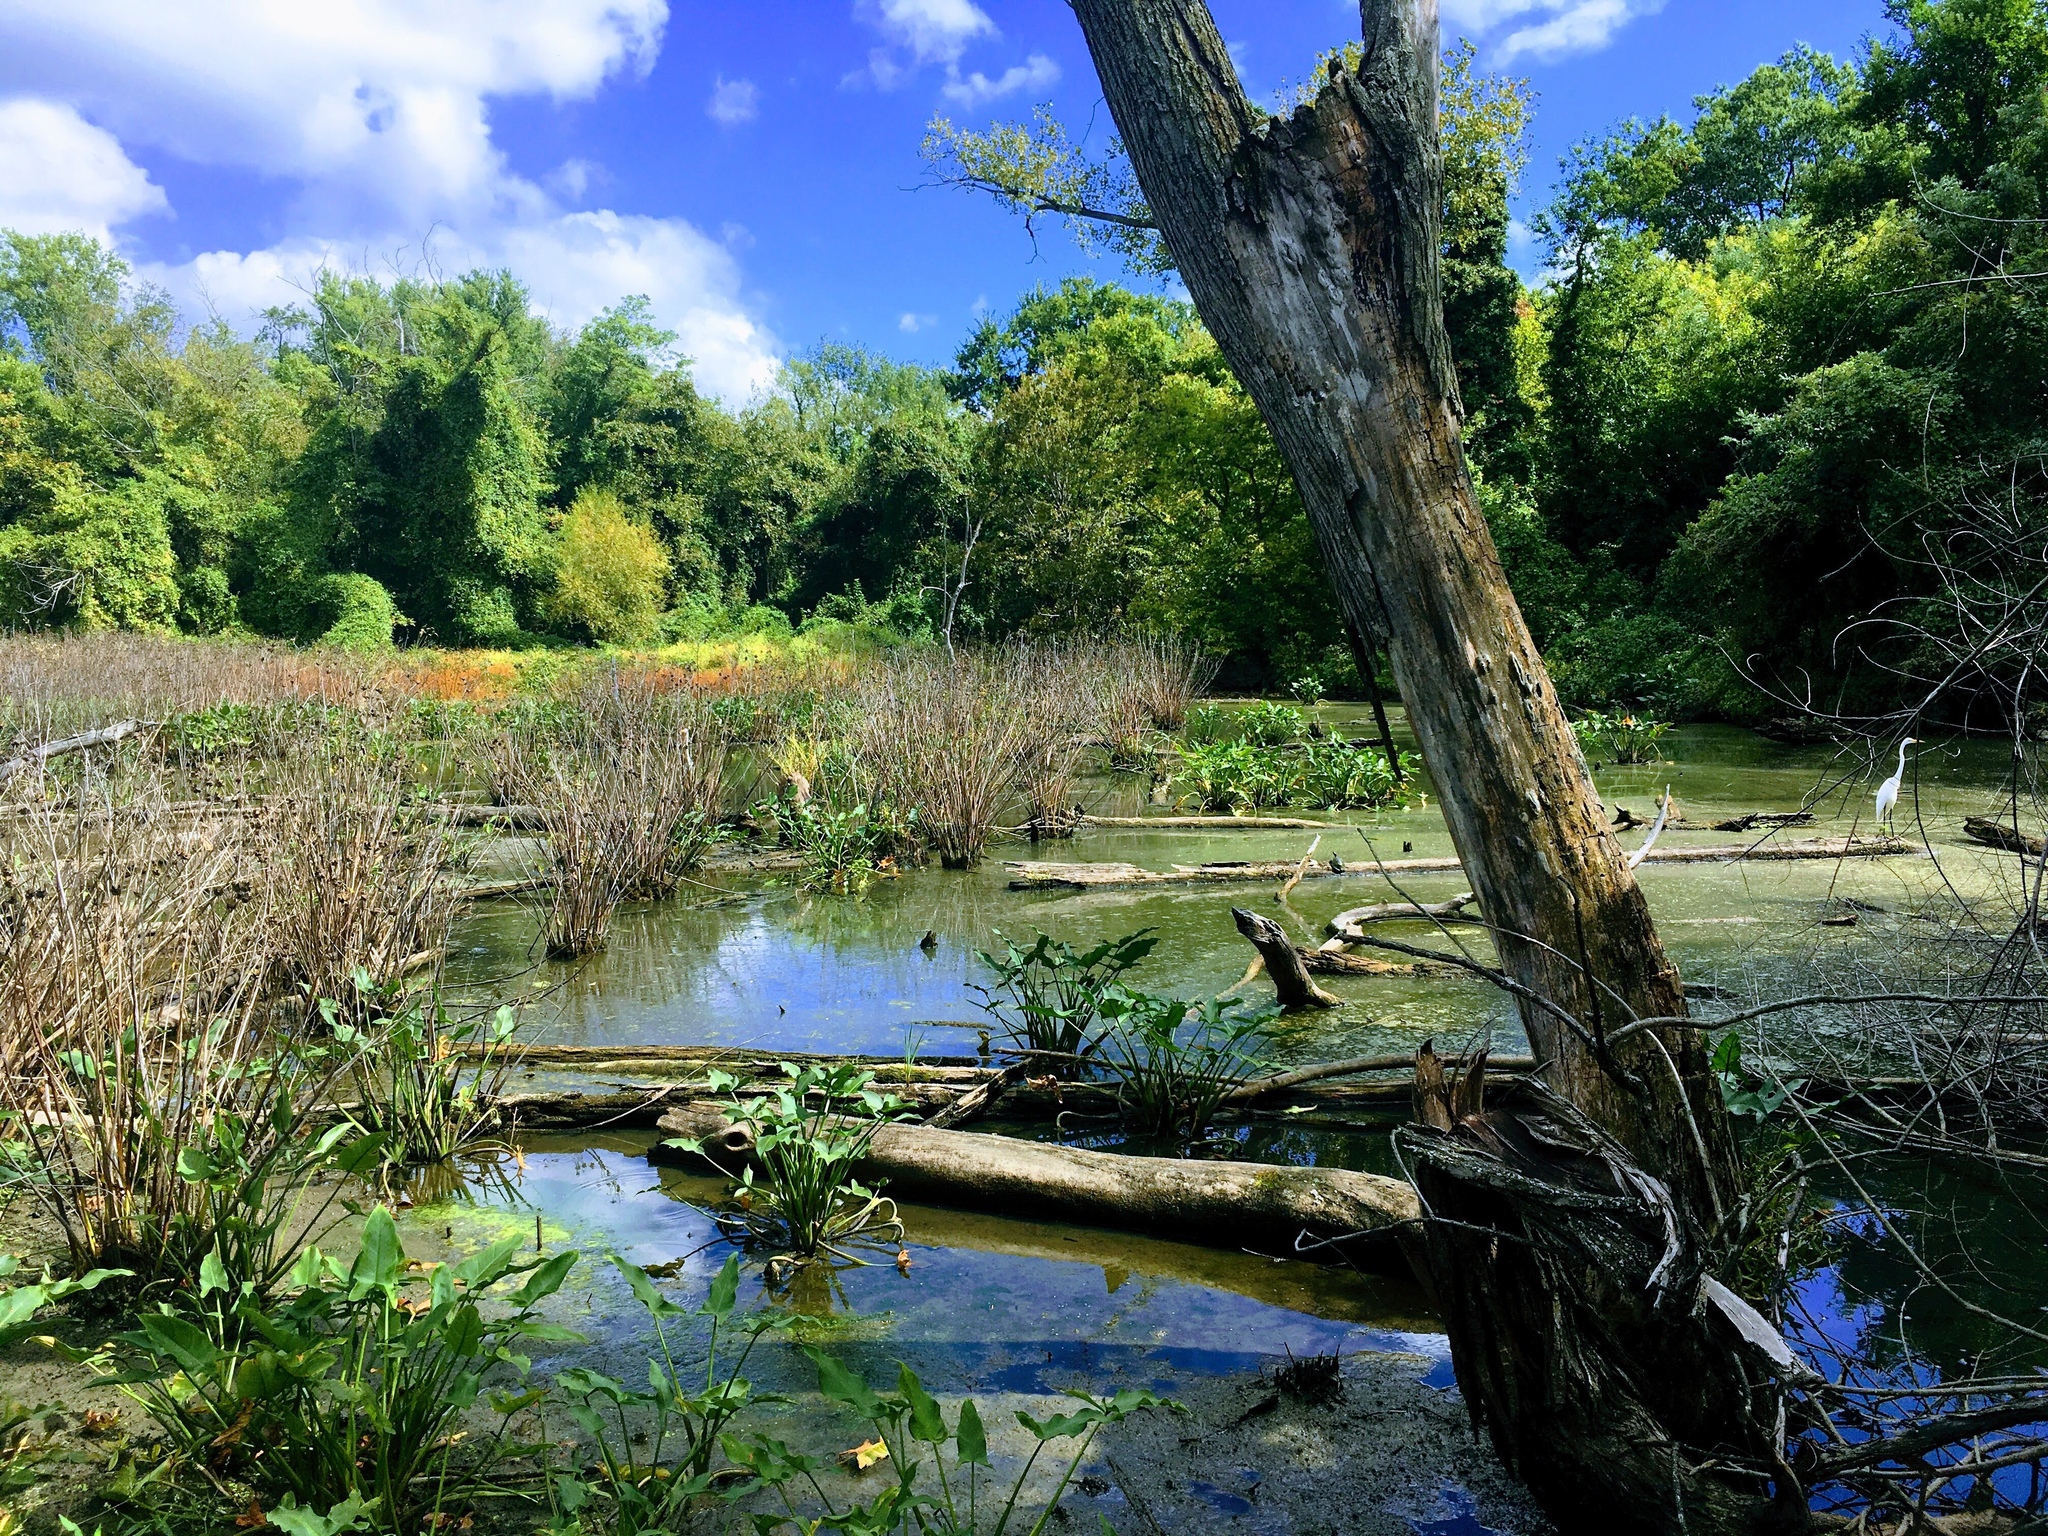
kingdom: Animalia
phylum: Chordata
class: Aves
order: Pelecaniformes
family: Ardeidae
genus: Ardea
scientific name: Ardea alba
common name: Great egret
